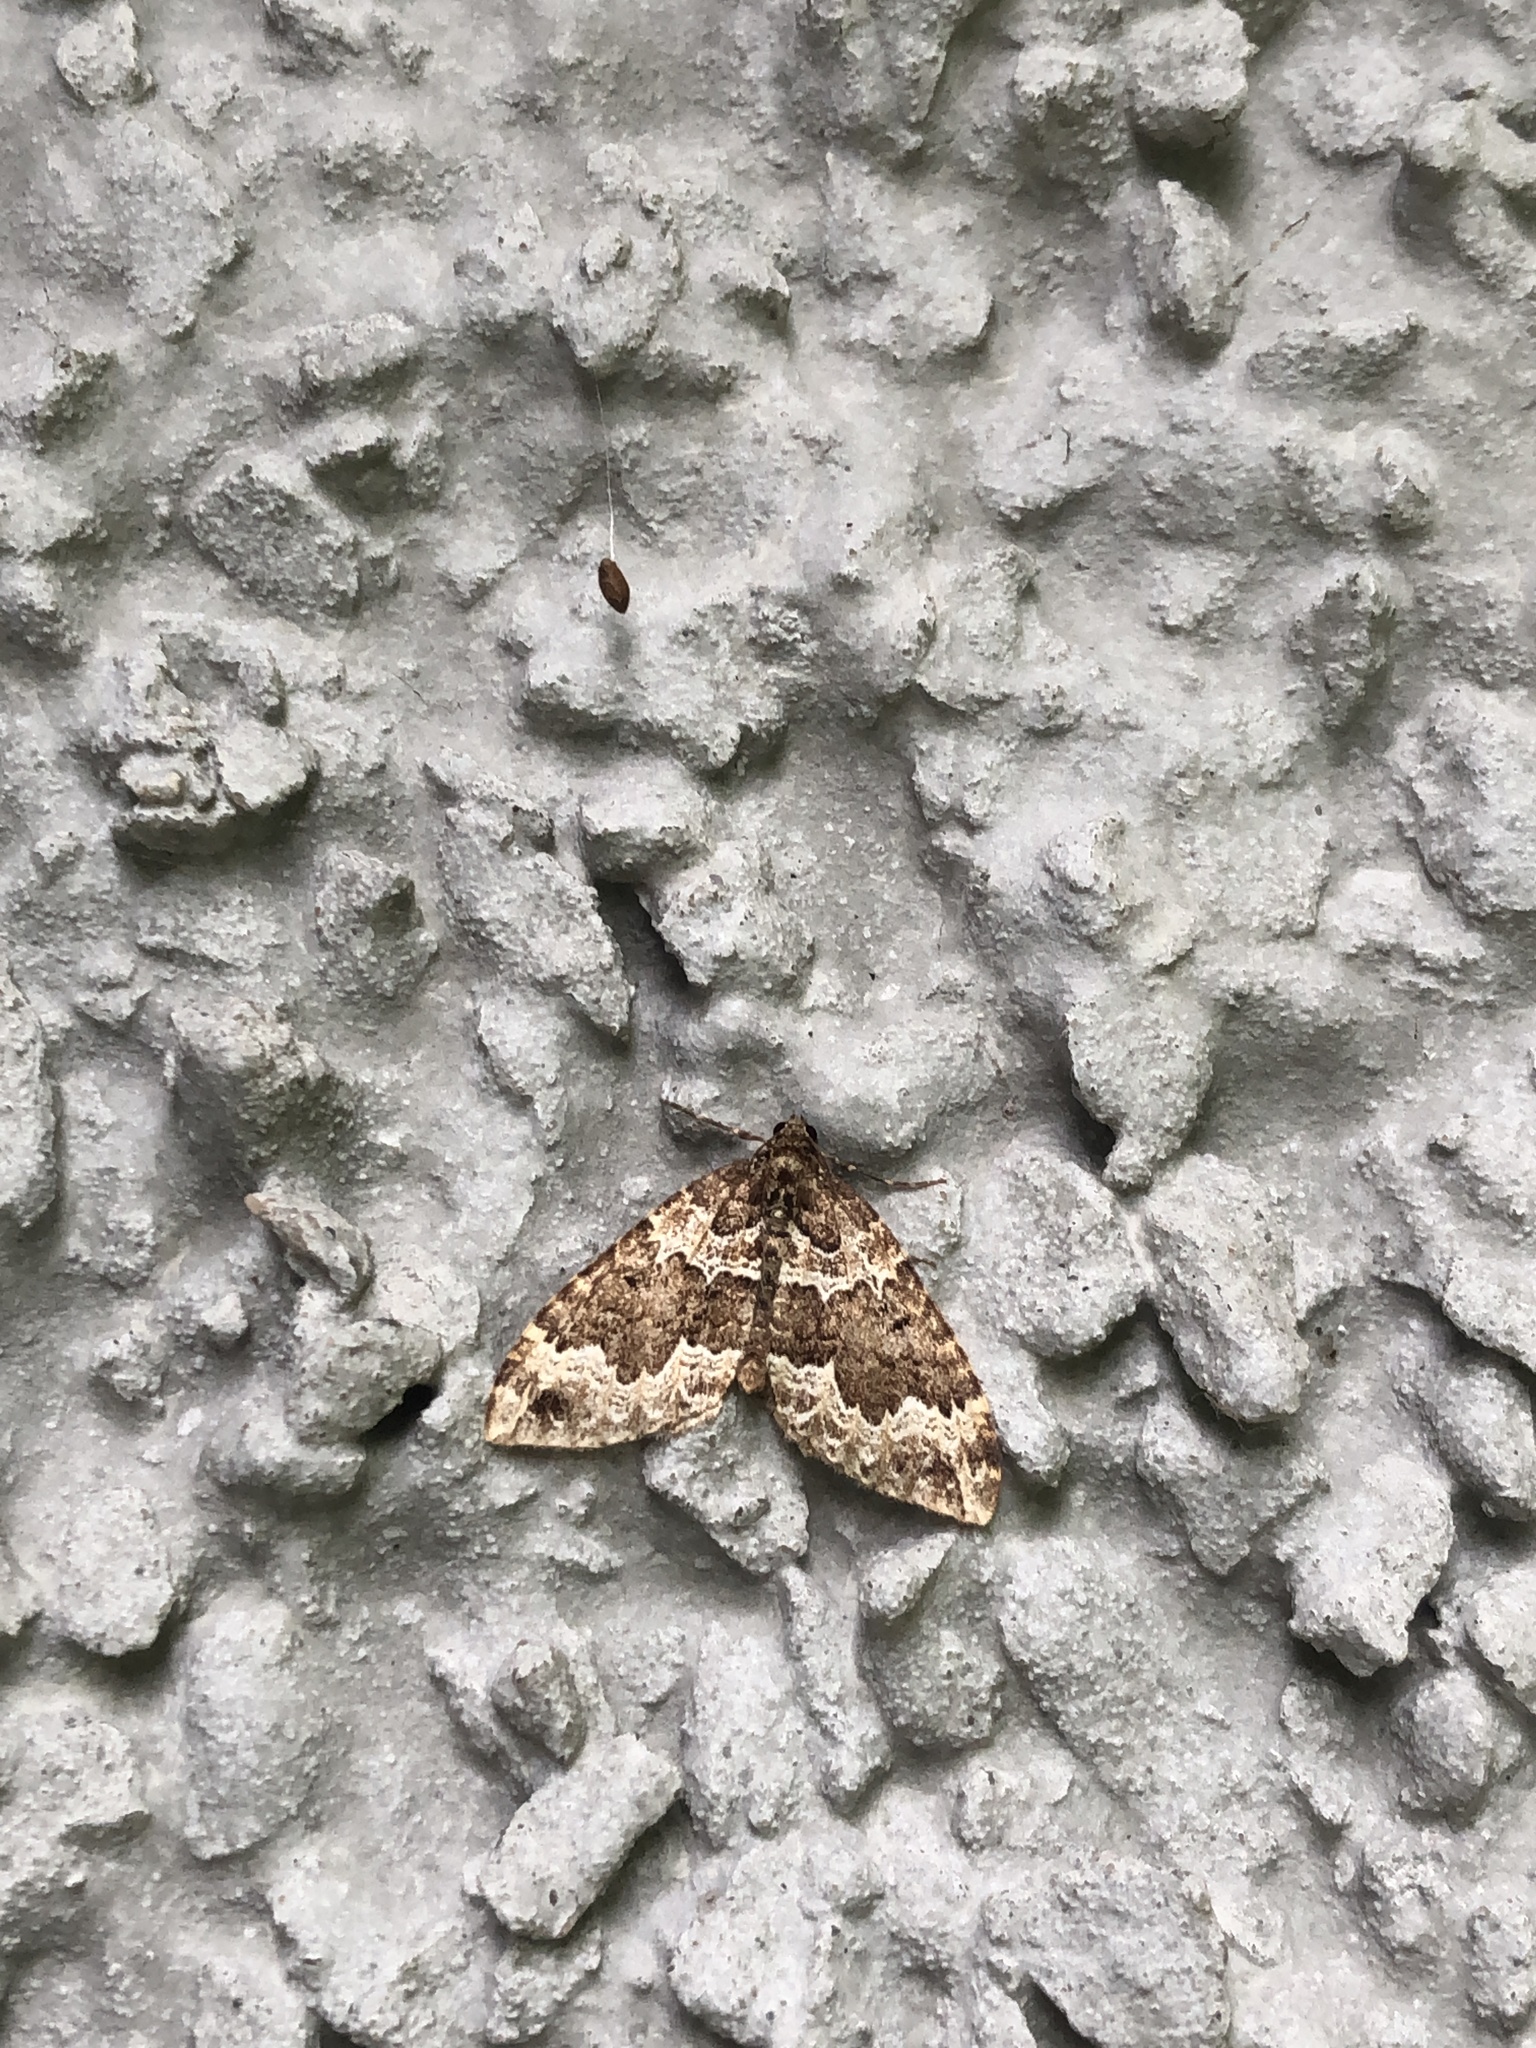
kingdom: Animalia
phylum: Arthropoda
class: Insecta
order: Lepidoptera
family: Geometridae
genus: Lampropteryx
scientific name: Lampropteryx suffumata
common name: Water carpet
